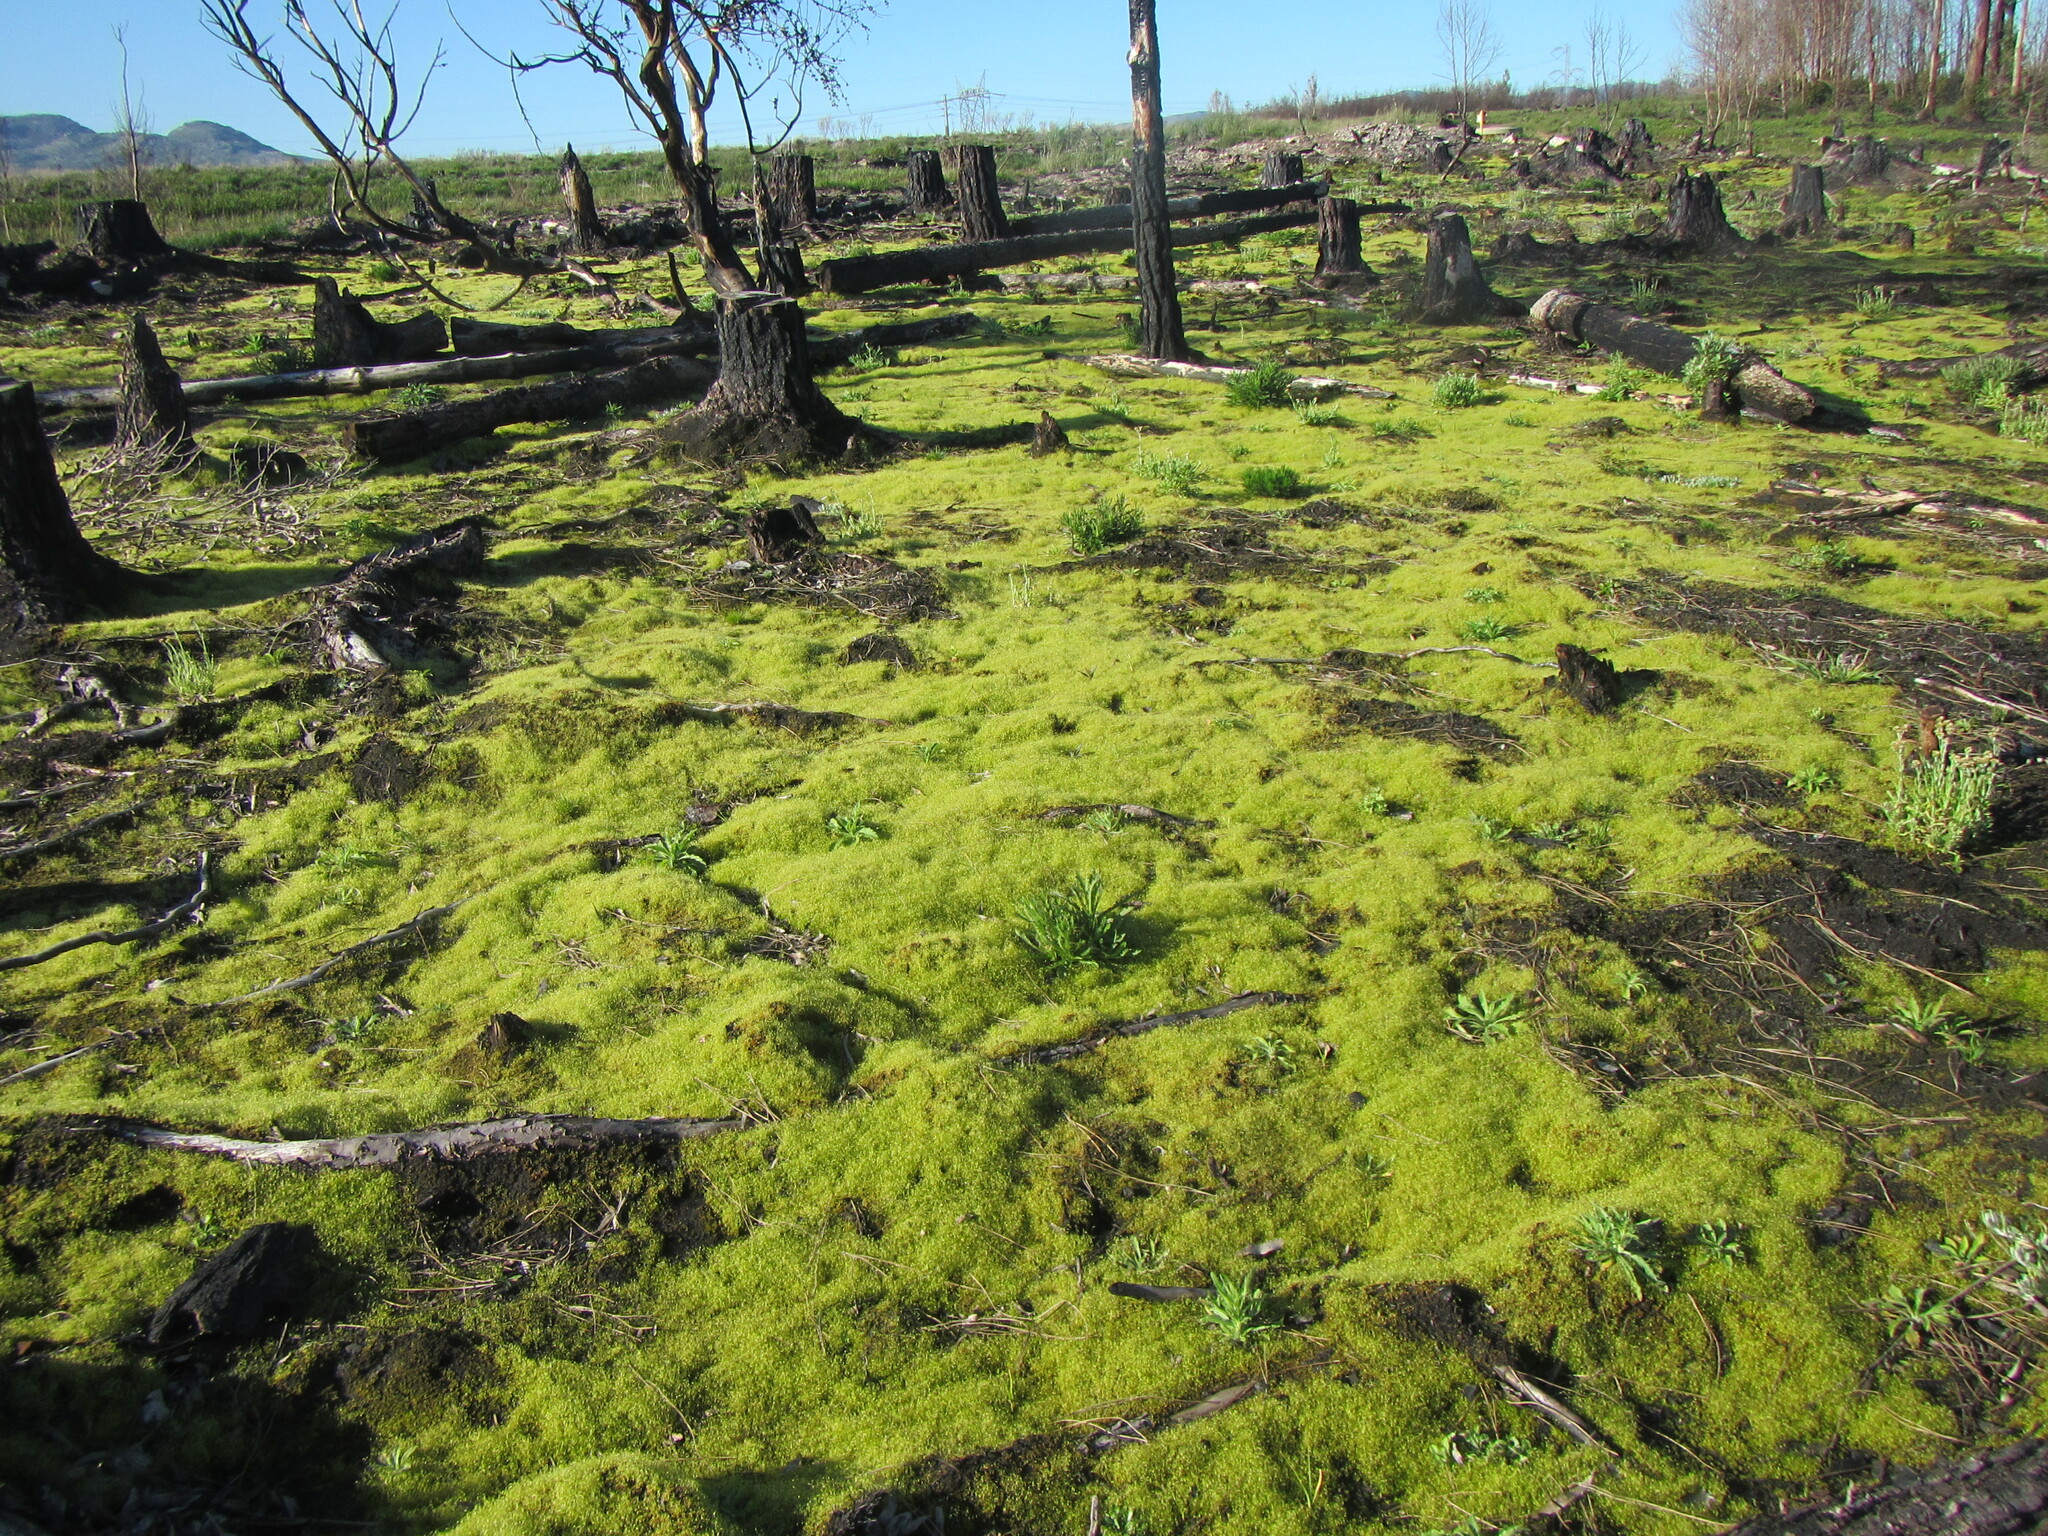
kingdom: Plantae
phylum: Bryophyta
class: Bryopsida
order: Funariales
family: Funariaceae
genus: Funaria
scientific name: Funaria hygrometrica
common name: Common cord moss
